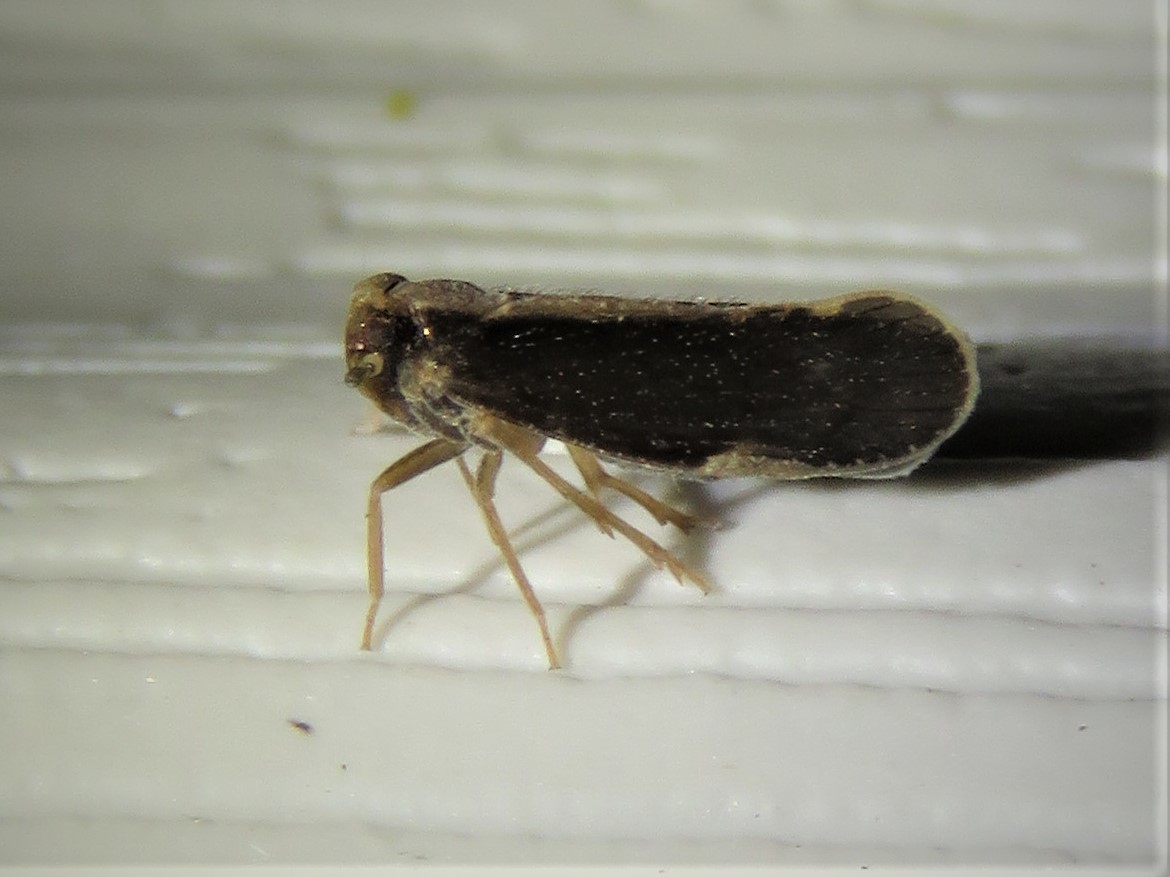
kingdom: Animalia
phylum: Arthropoda
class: Insecta
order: Hemiptera
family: Cixiidae
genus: Pintalia
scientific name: Pintalia delicata
